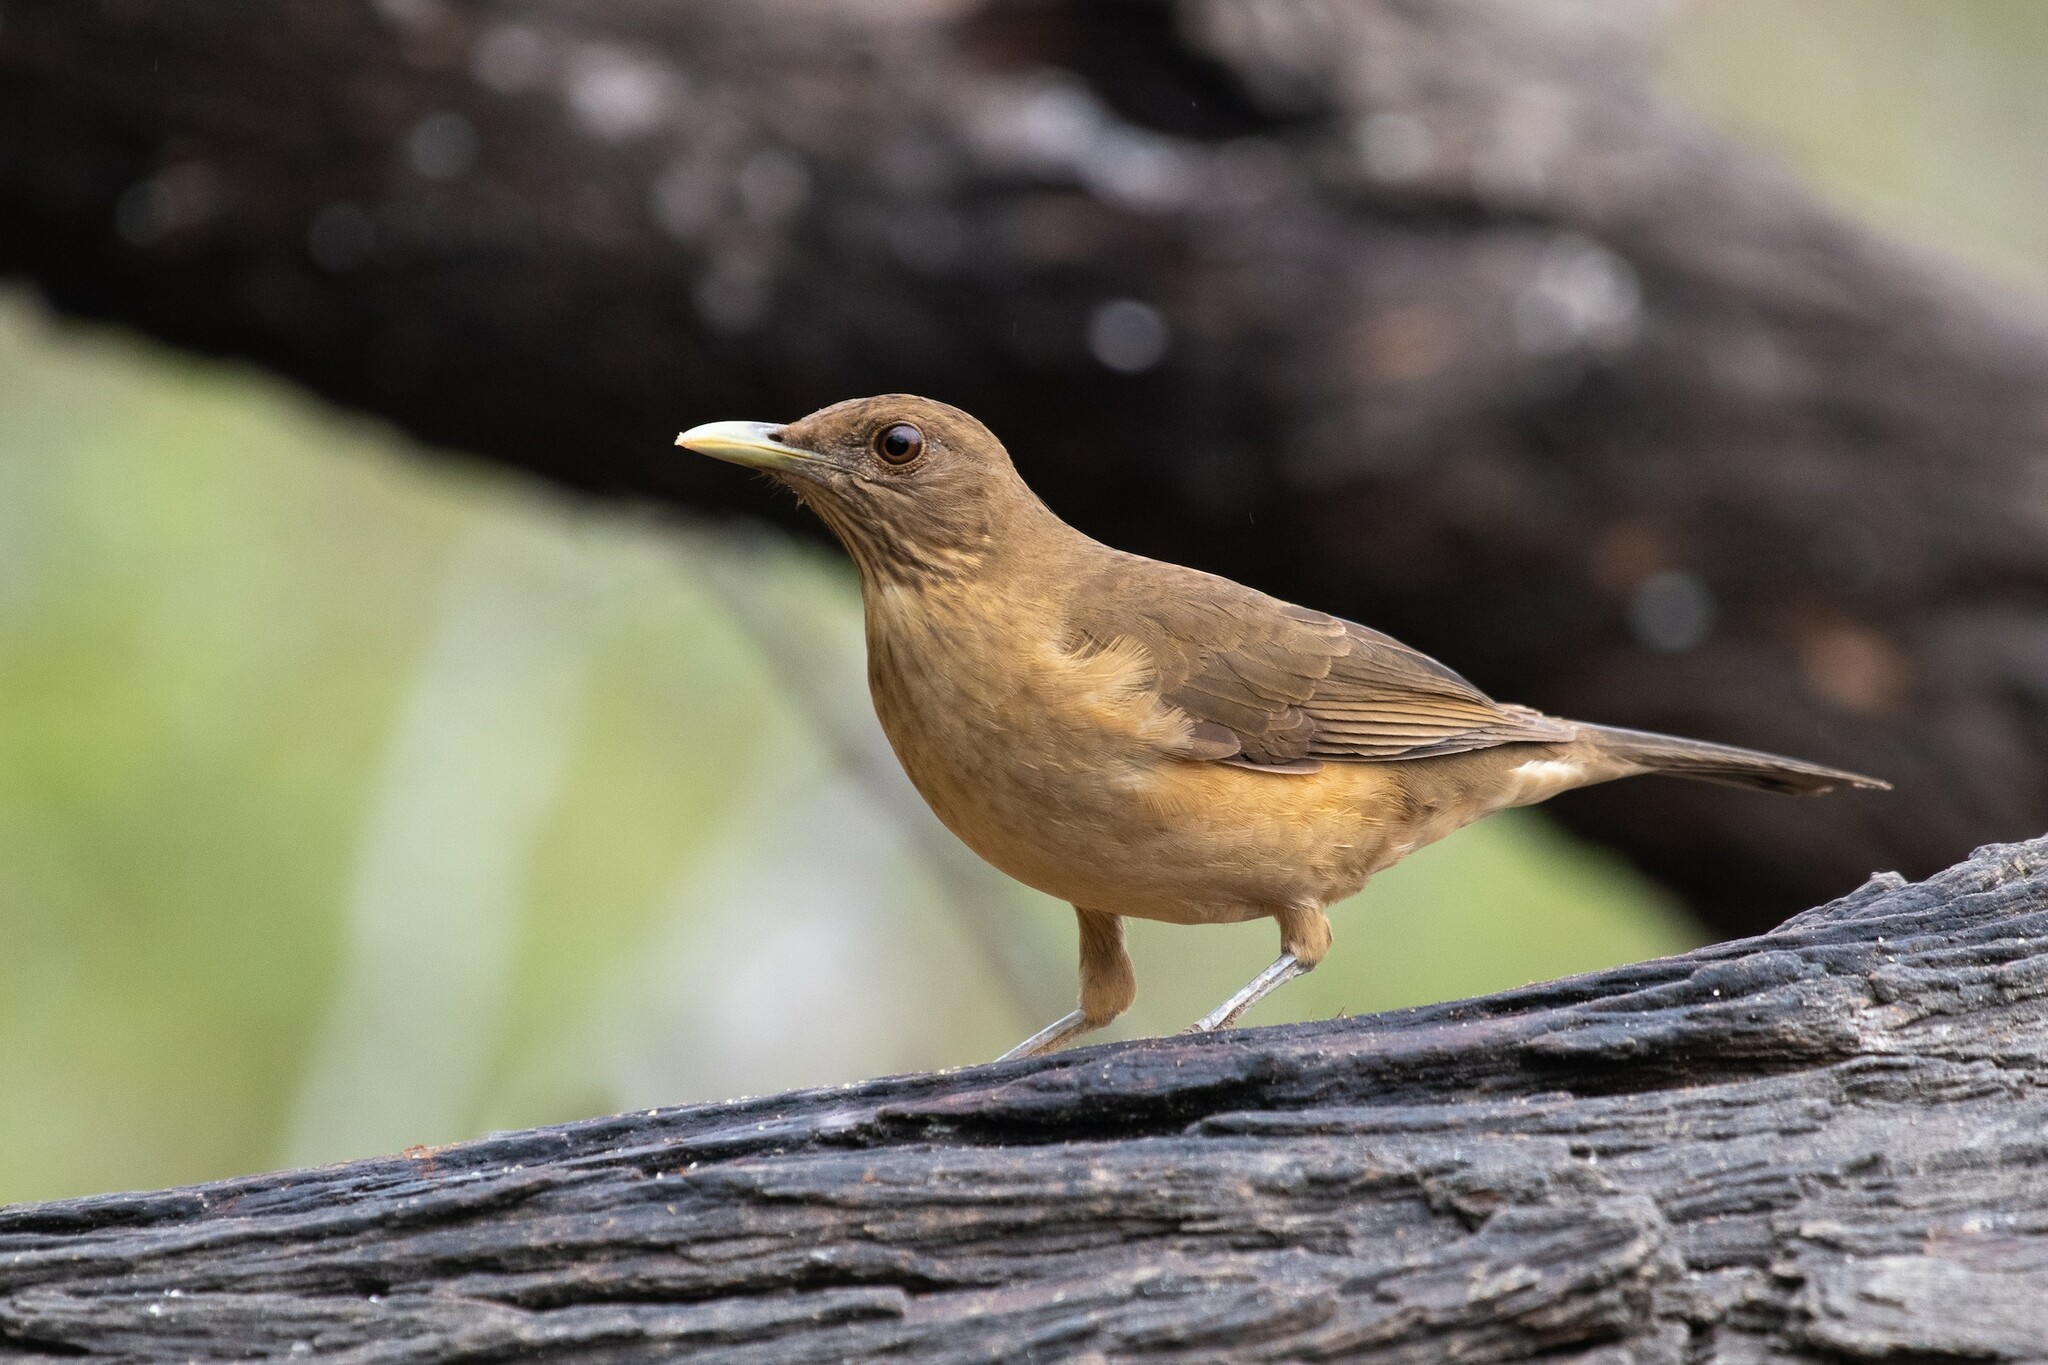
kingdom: Animalia
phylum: Chordata
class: Aves
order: Passeriformes
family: Turdidae
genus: Turdus
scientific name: Turdus grayi
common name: Clay-colored thrush
